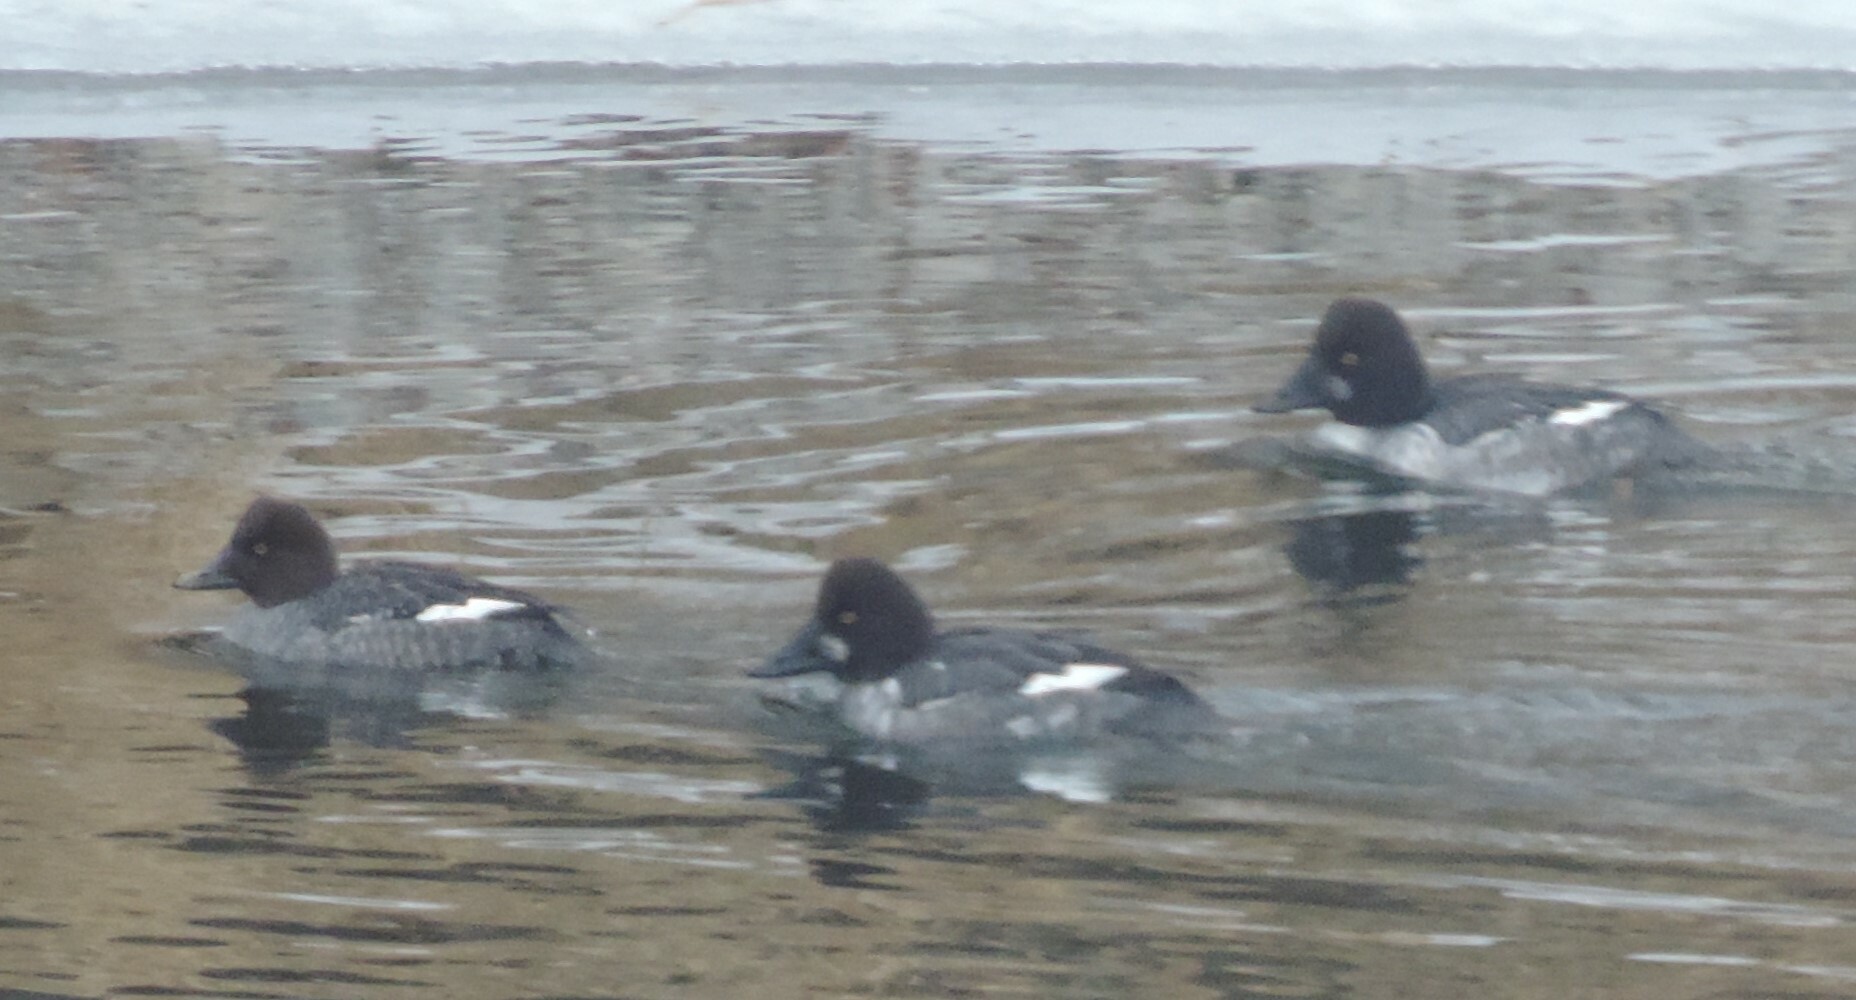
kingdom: Animalia
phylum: Chordata
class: Aves
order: Anseriformes
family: Anatidae
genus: Bucephala
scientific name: Bucephala clangula
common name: Common goldeneye
